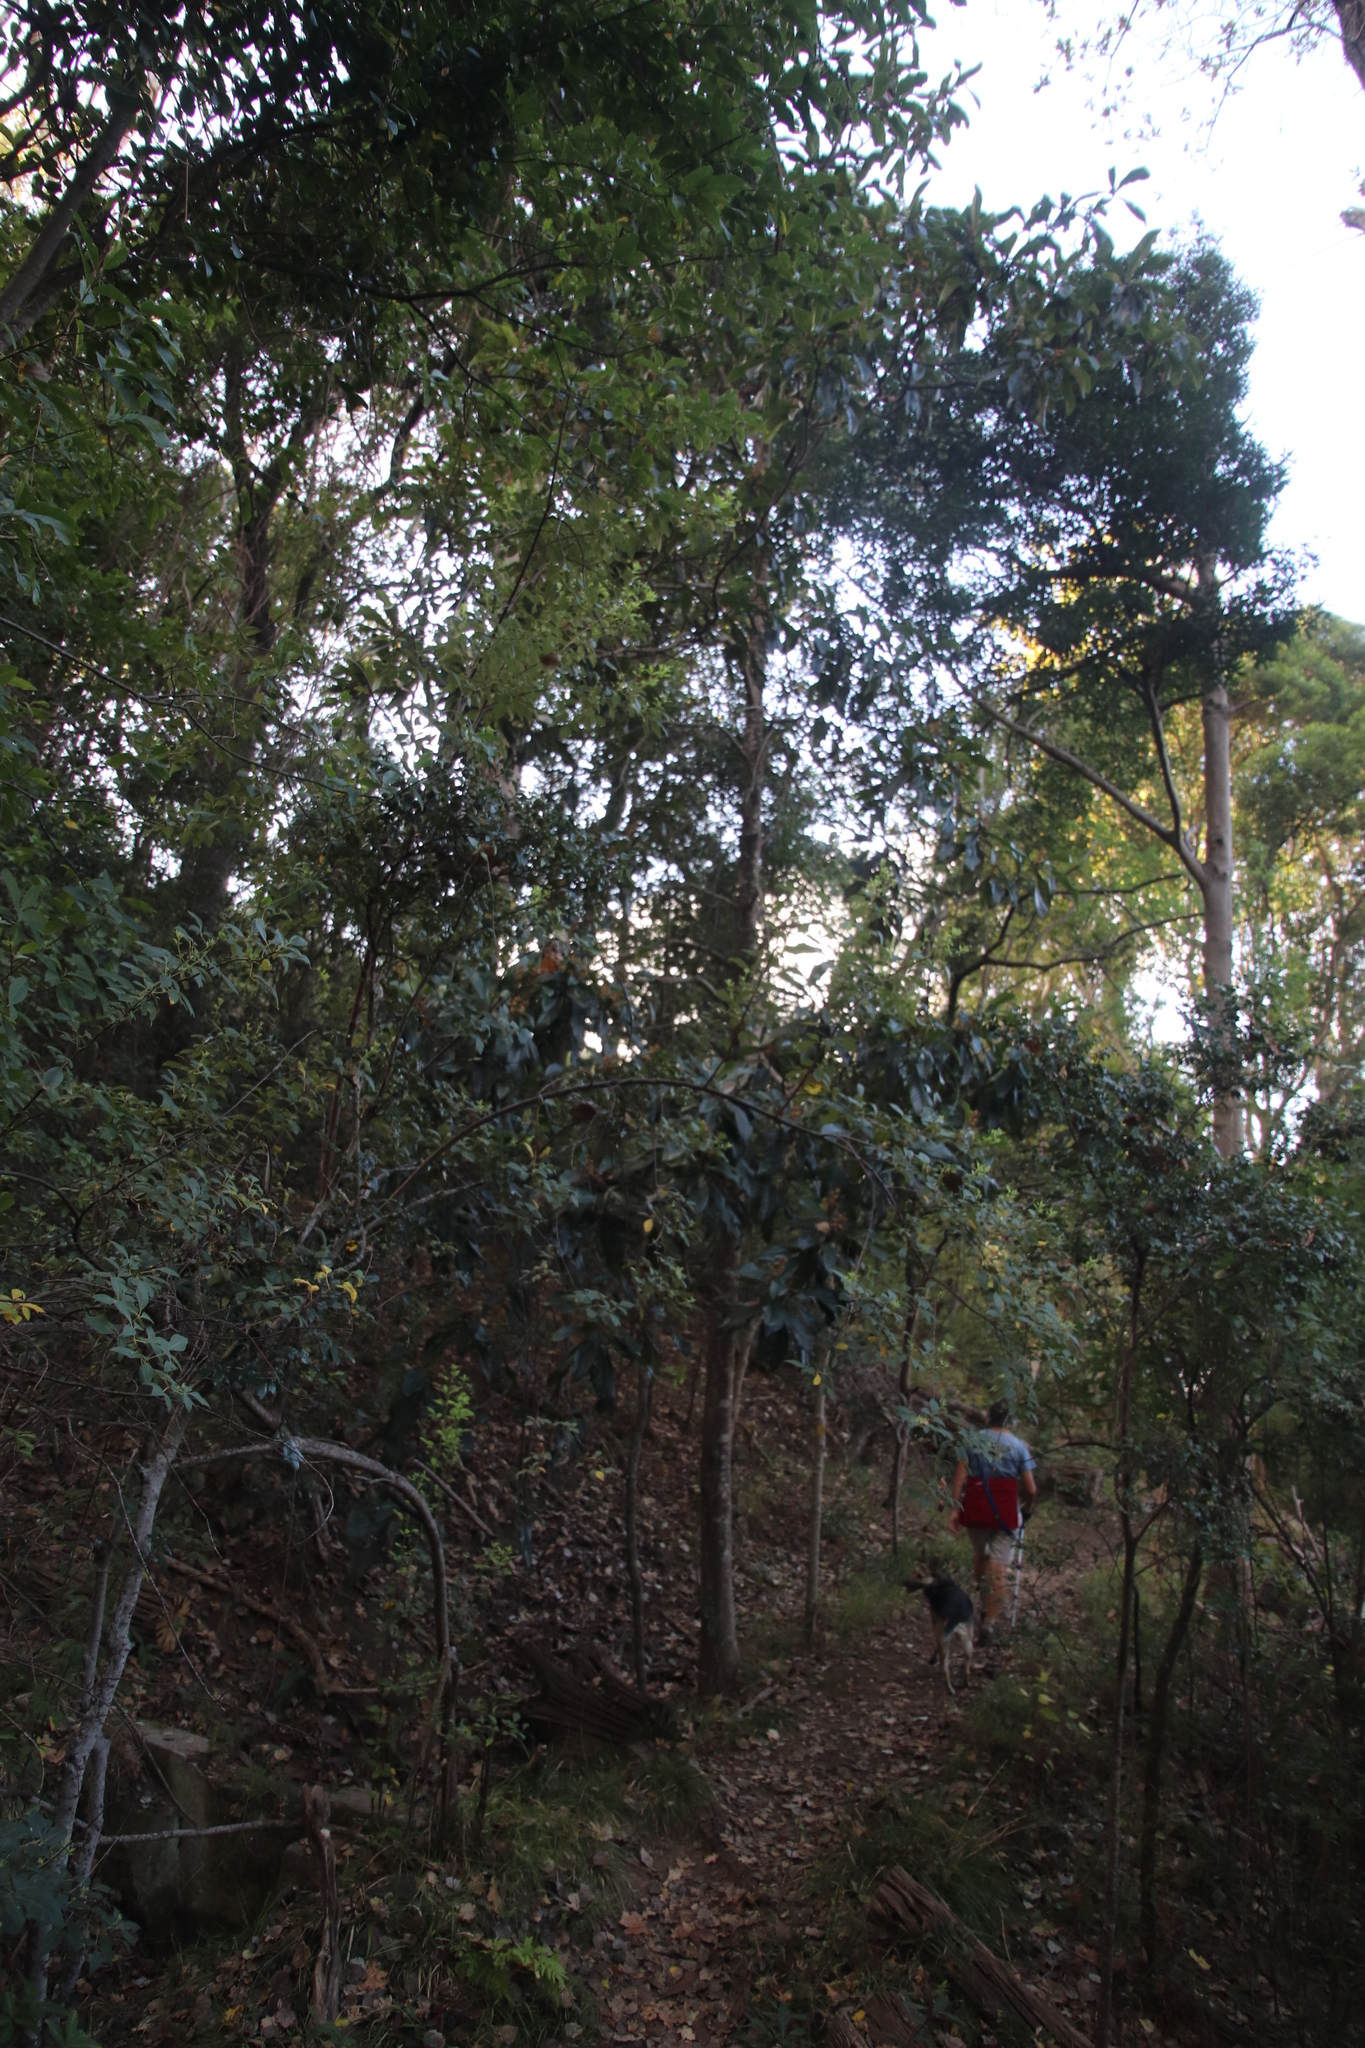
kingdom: Plantae
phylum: Tracheophyta
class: Magnoliopsida
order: Rosales
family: Rosaceae
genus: Rhaphiolepis
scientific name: Rhaphiolepis bibas
